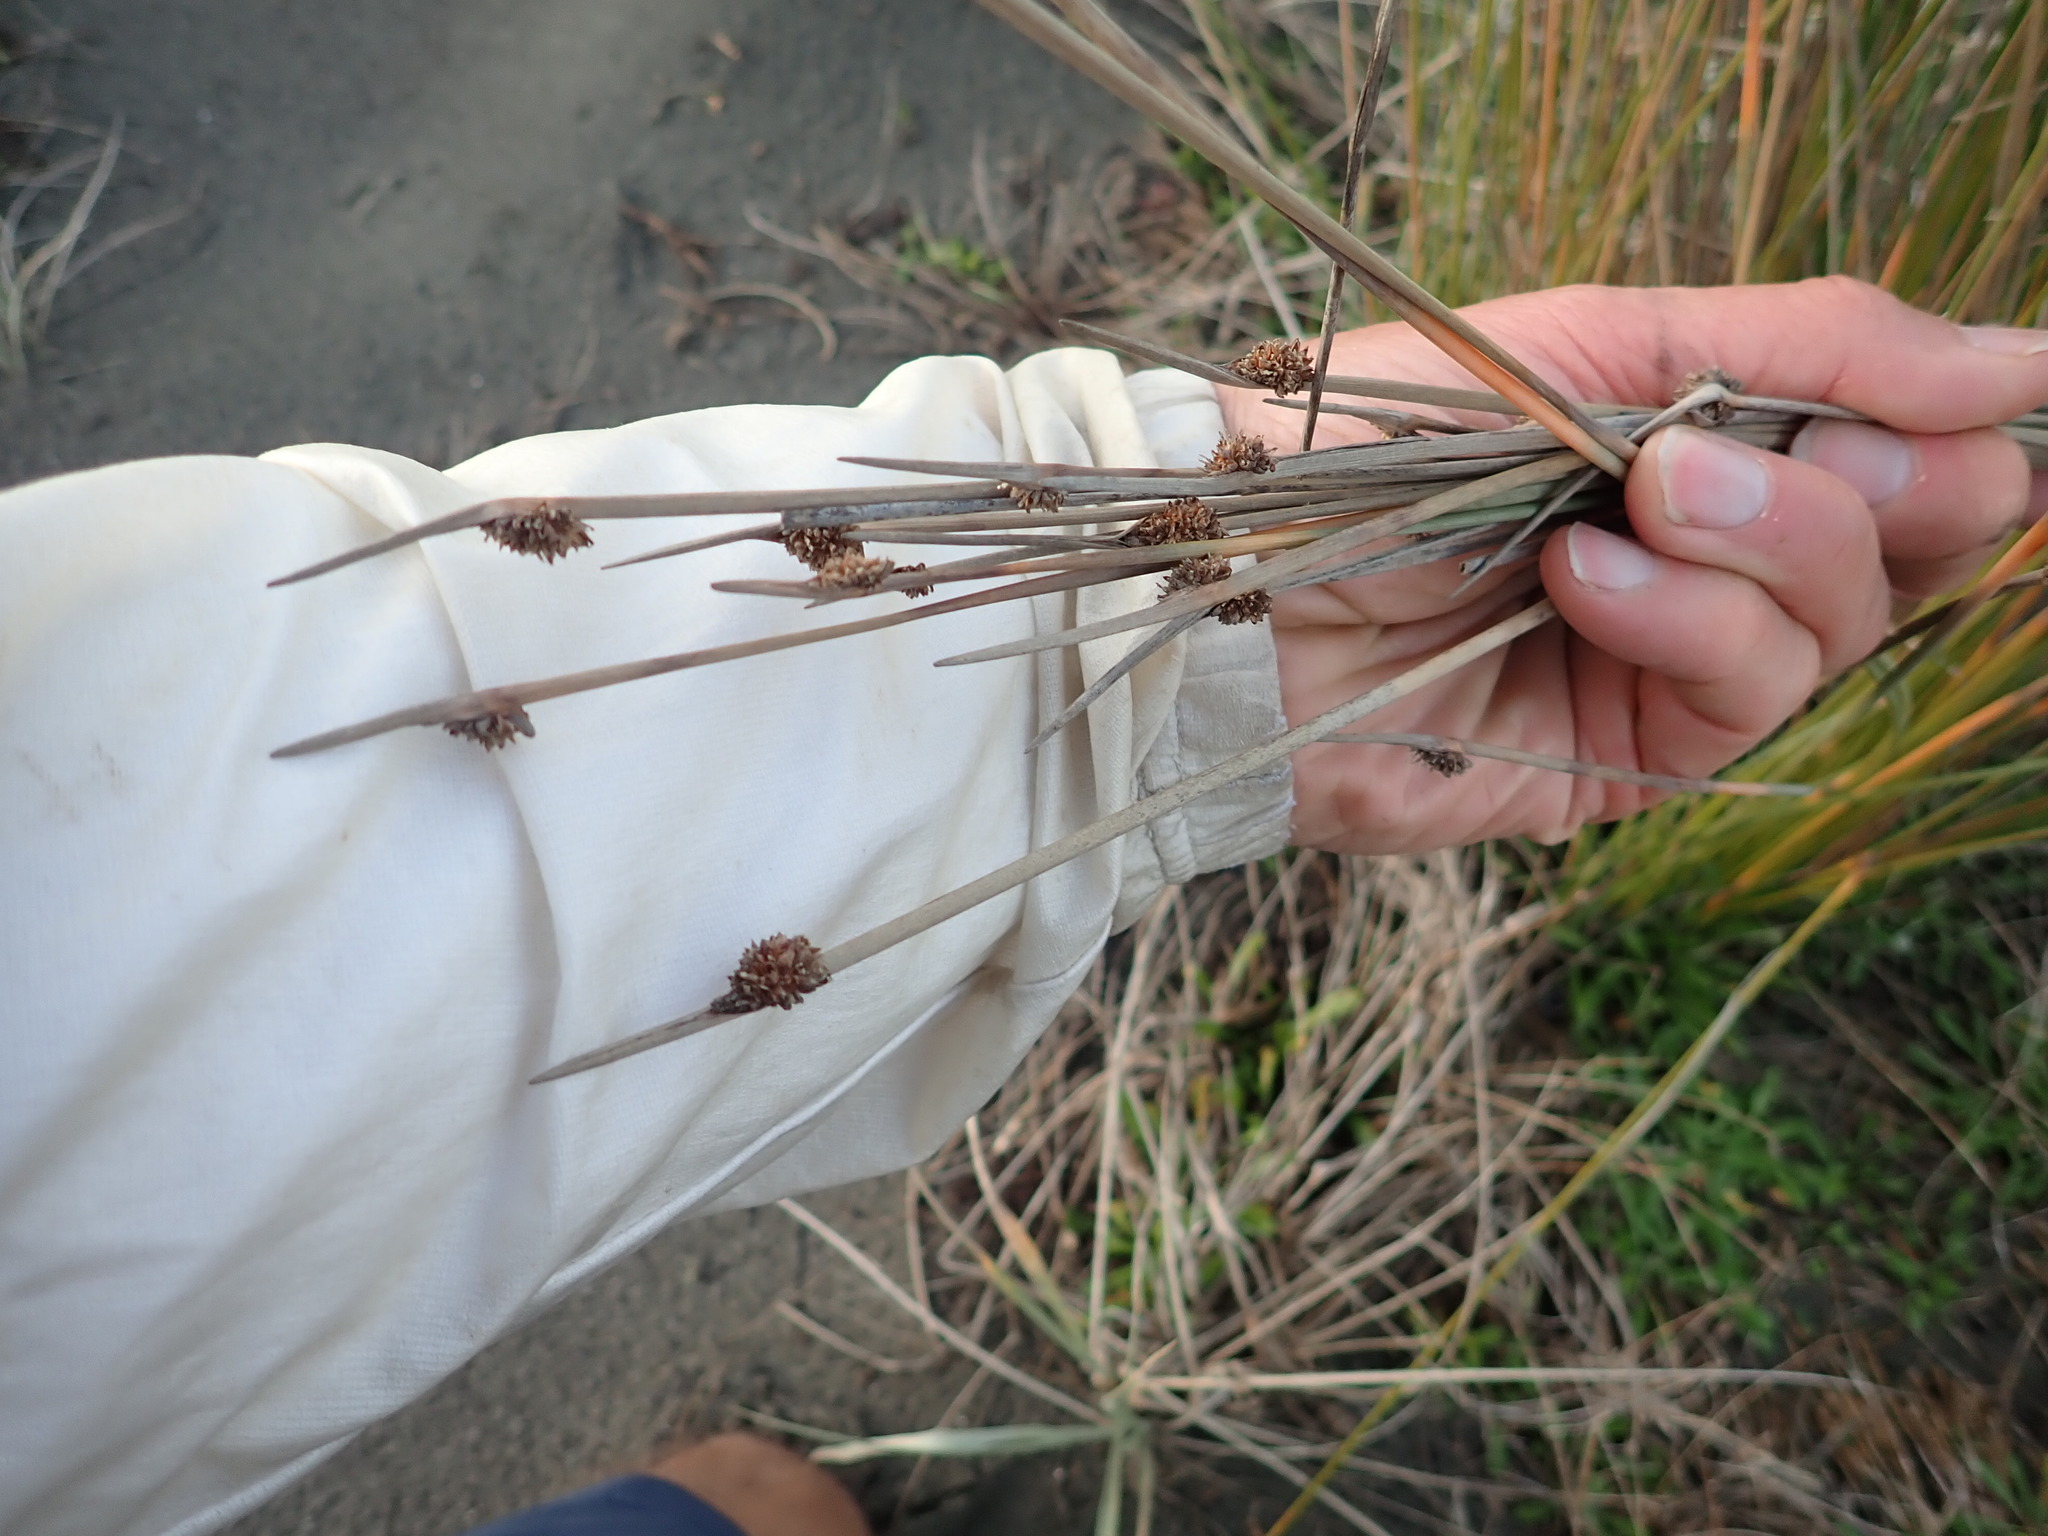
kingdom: Plantae
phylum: Tracheophyta
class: Liliopsida
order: Poales
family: Cyperaceae
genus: Ficinia
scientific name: Ficinia nodosa
